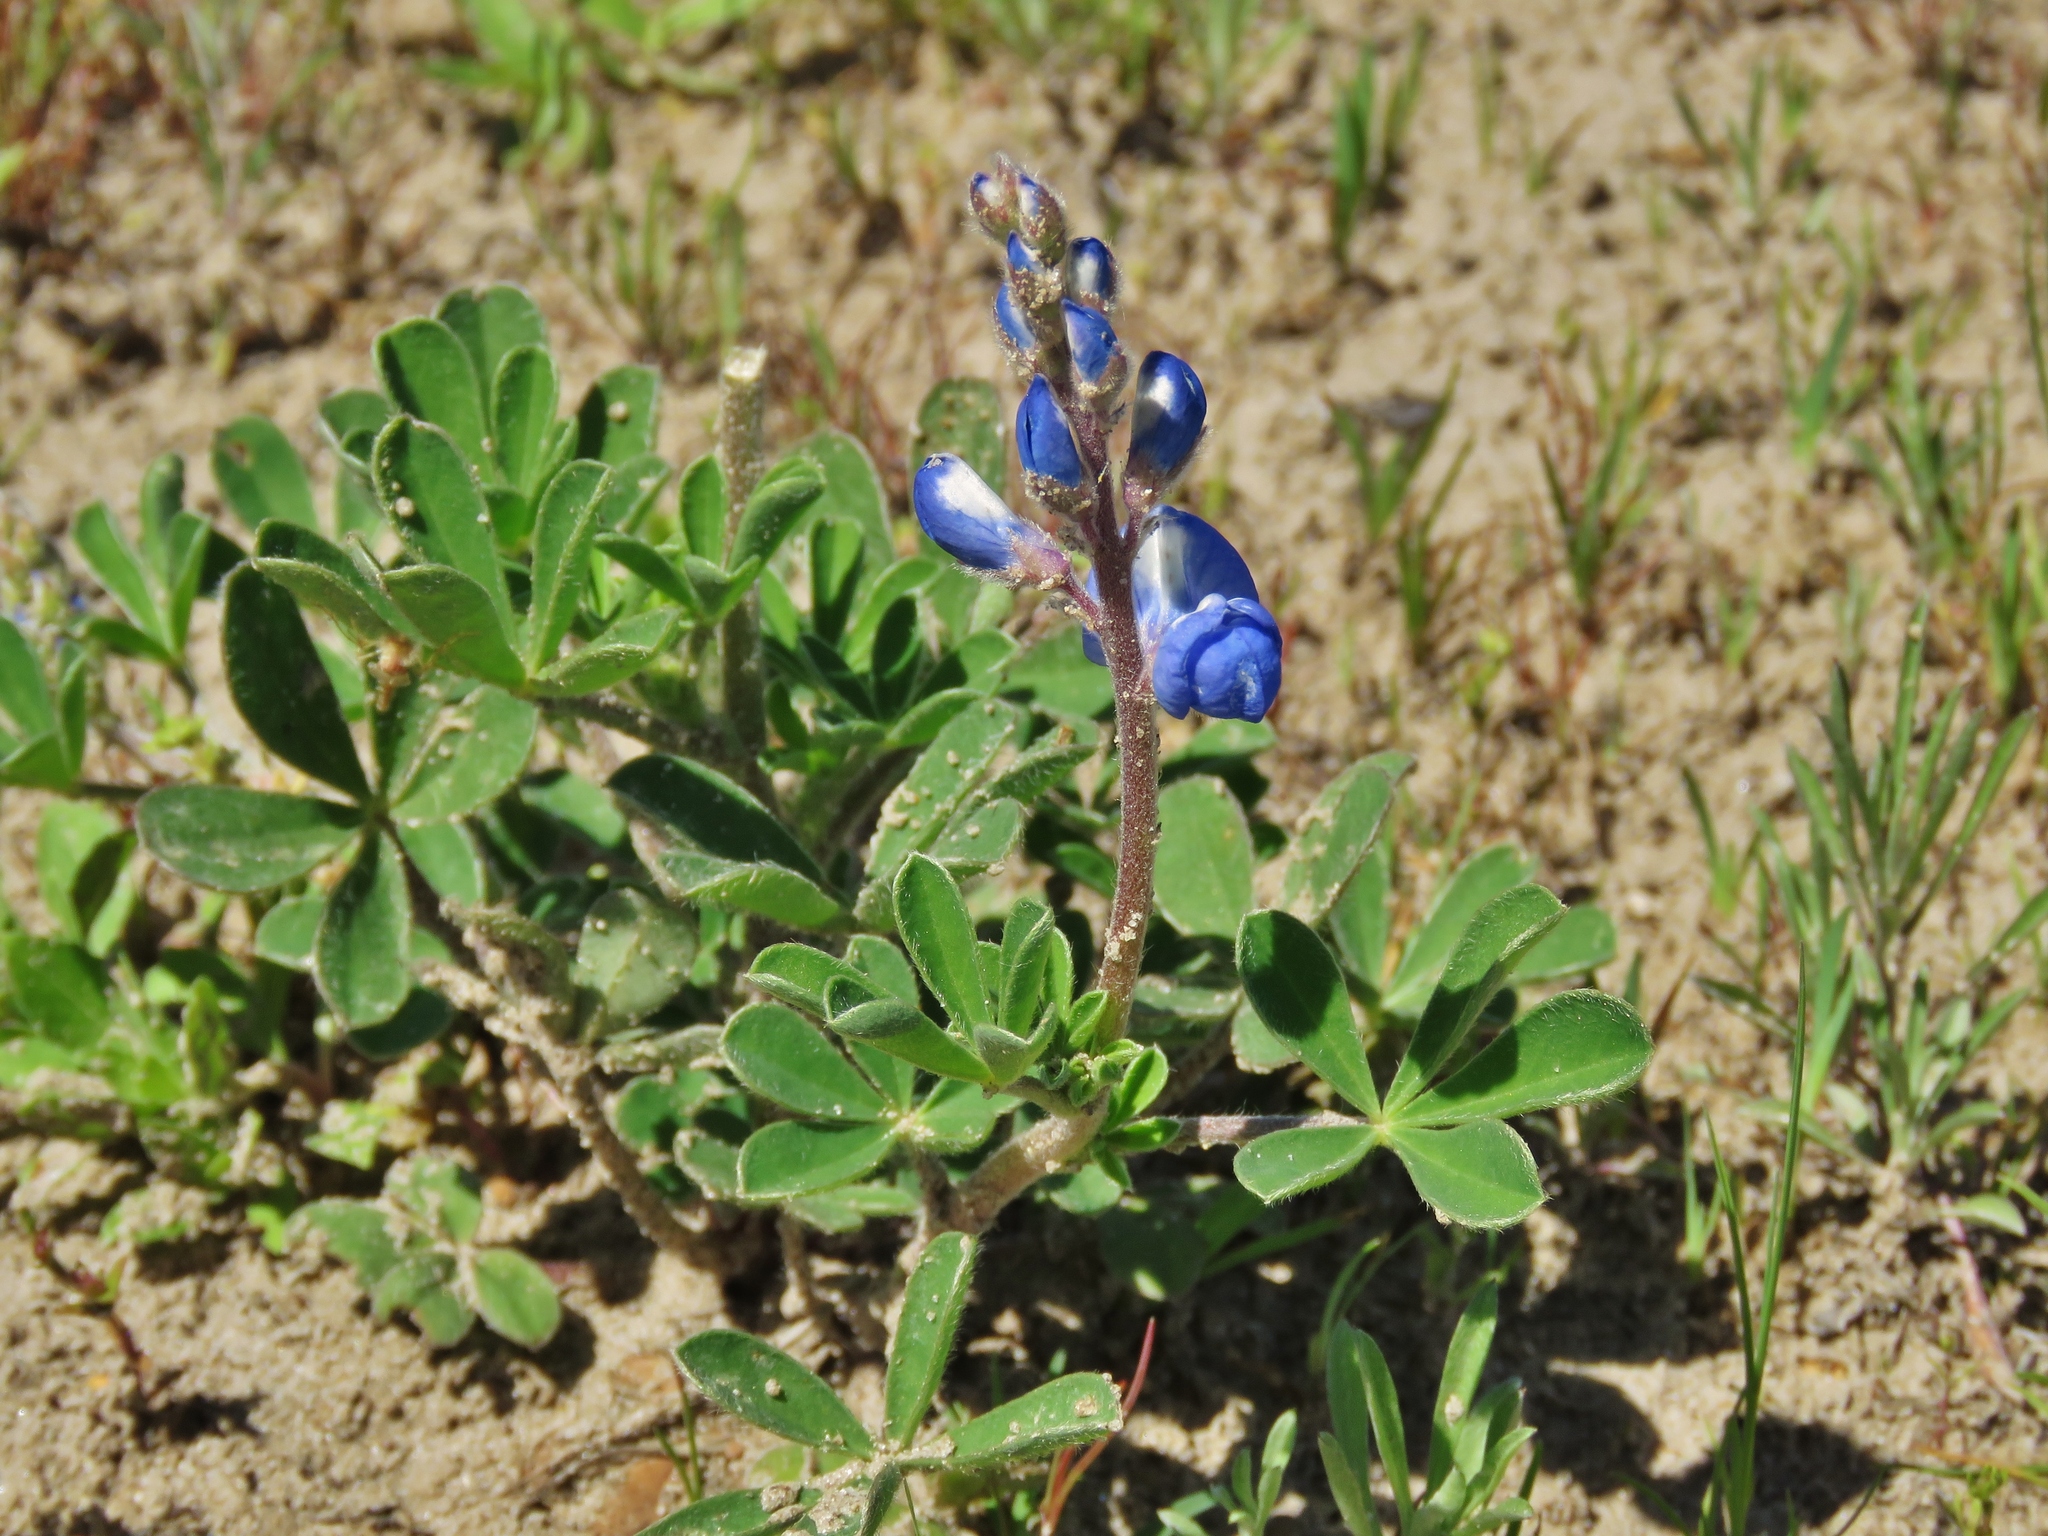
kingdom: Plantae
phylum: Tracheophyta
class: Magnoliopsida
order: Fabales
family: Fabaceae
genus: Lupinus
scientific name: Lupinus subcarnosus
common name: Texas bluebonnet
